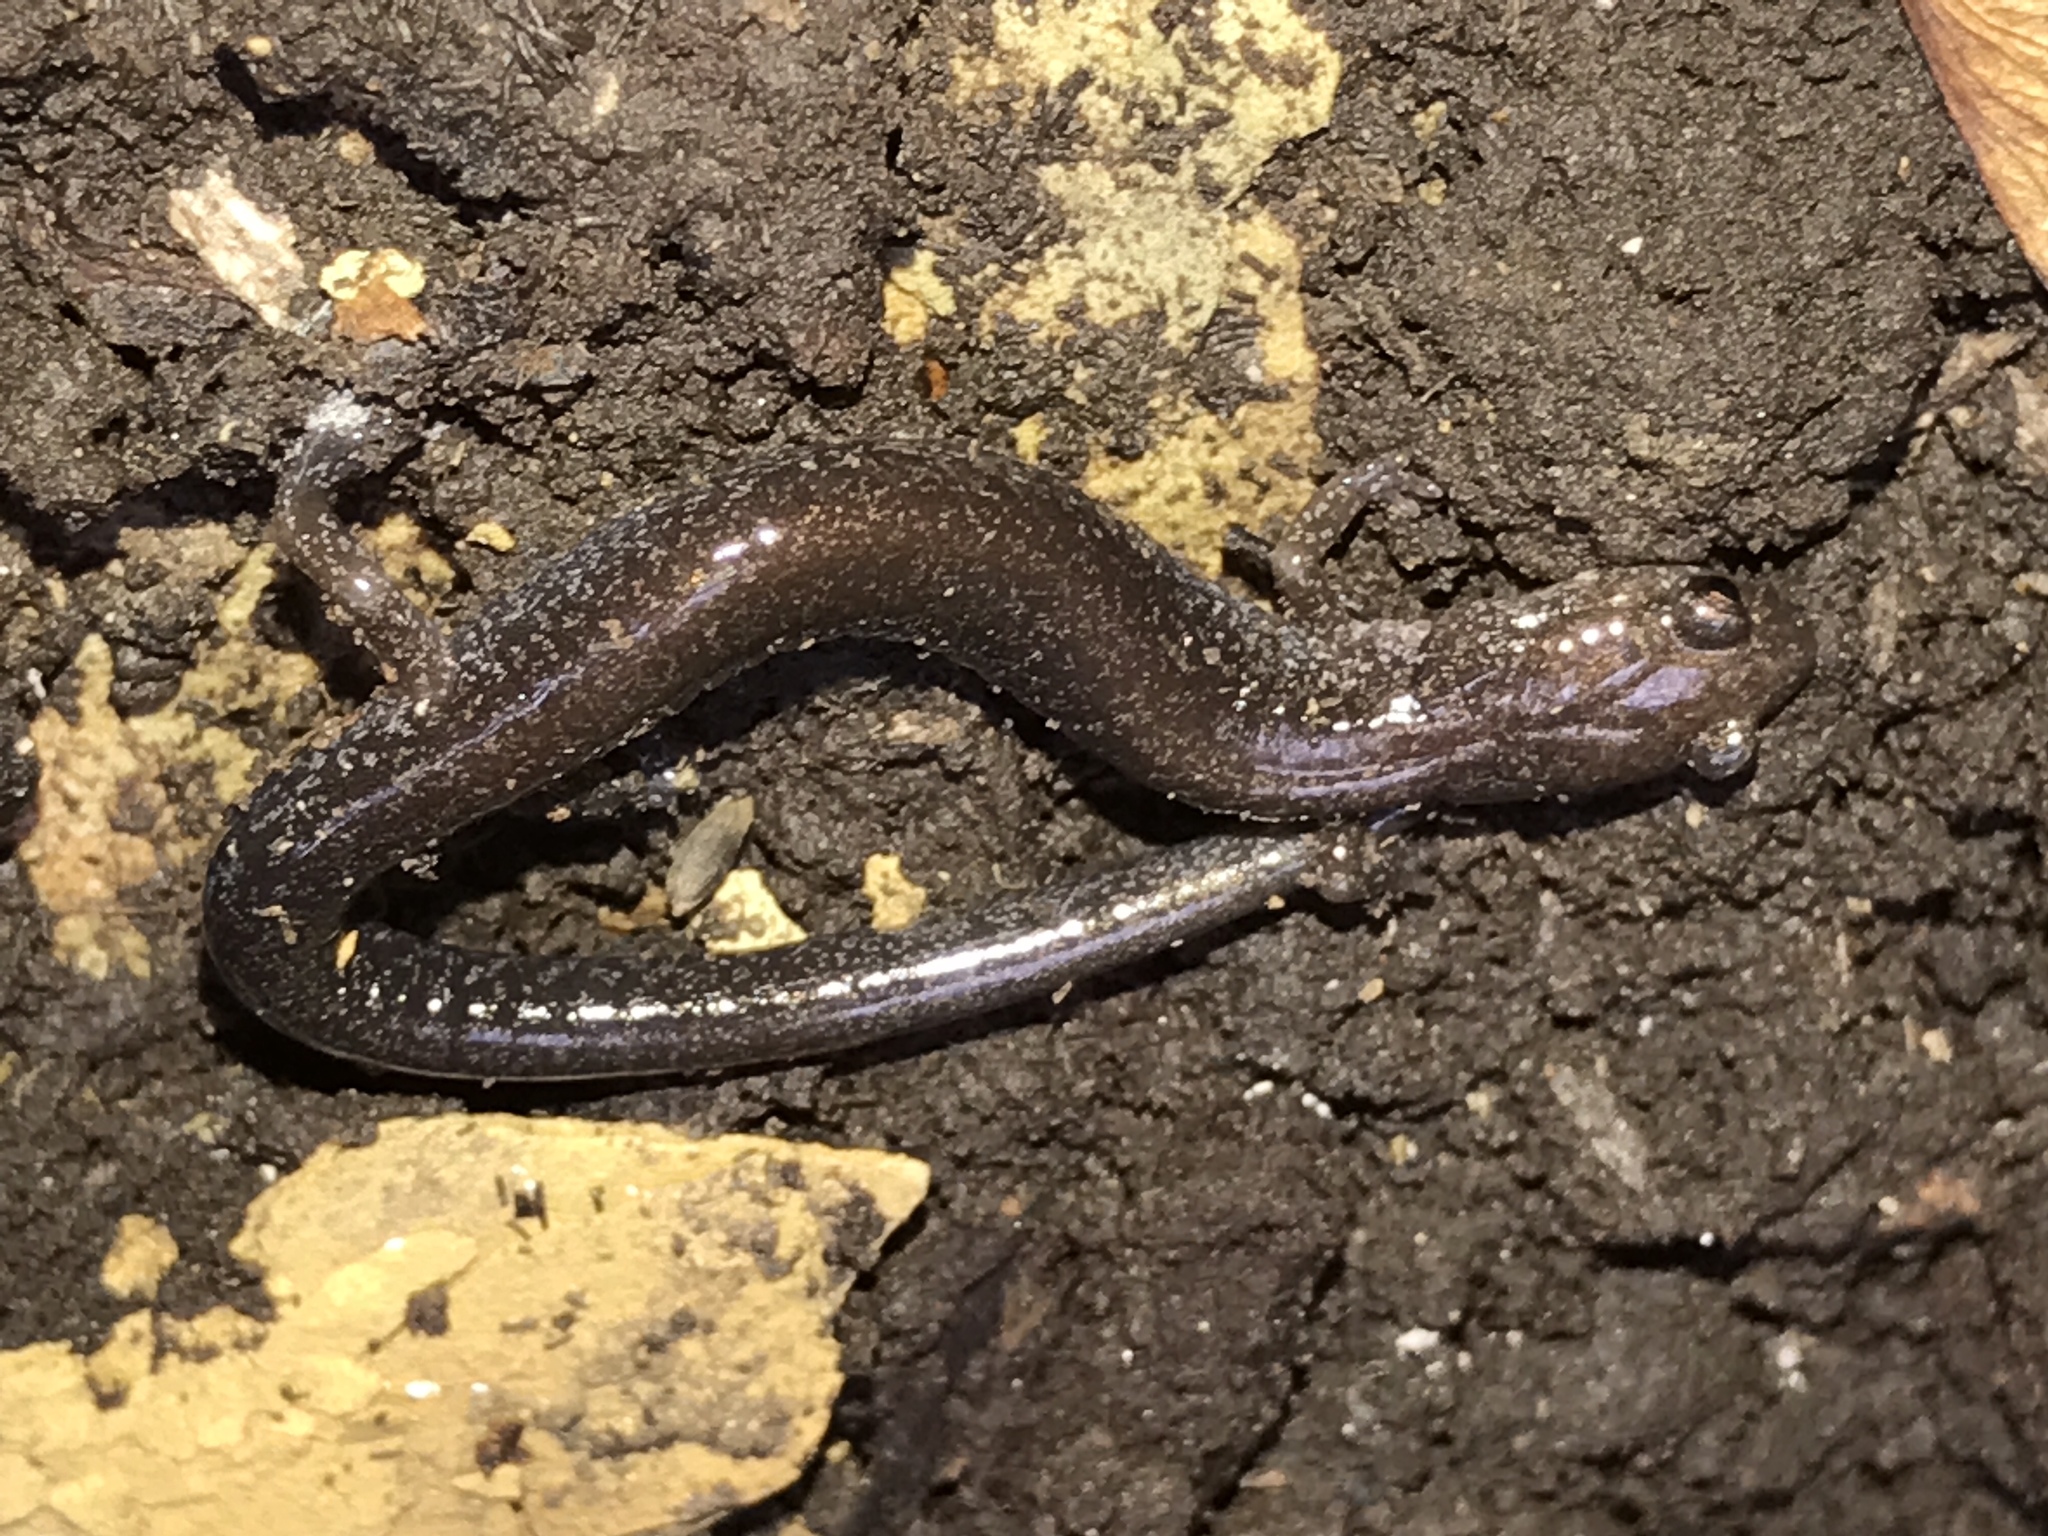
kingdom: Animalia
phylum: Chordata
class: Amphibia
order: Caudata
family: Plethodontidae
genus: Plethodon
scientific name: Plethodon cinereus
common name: Redback salamander
